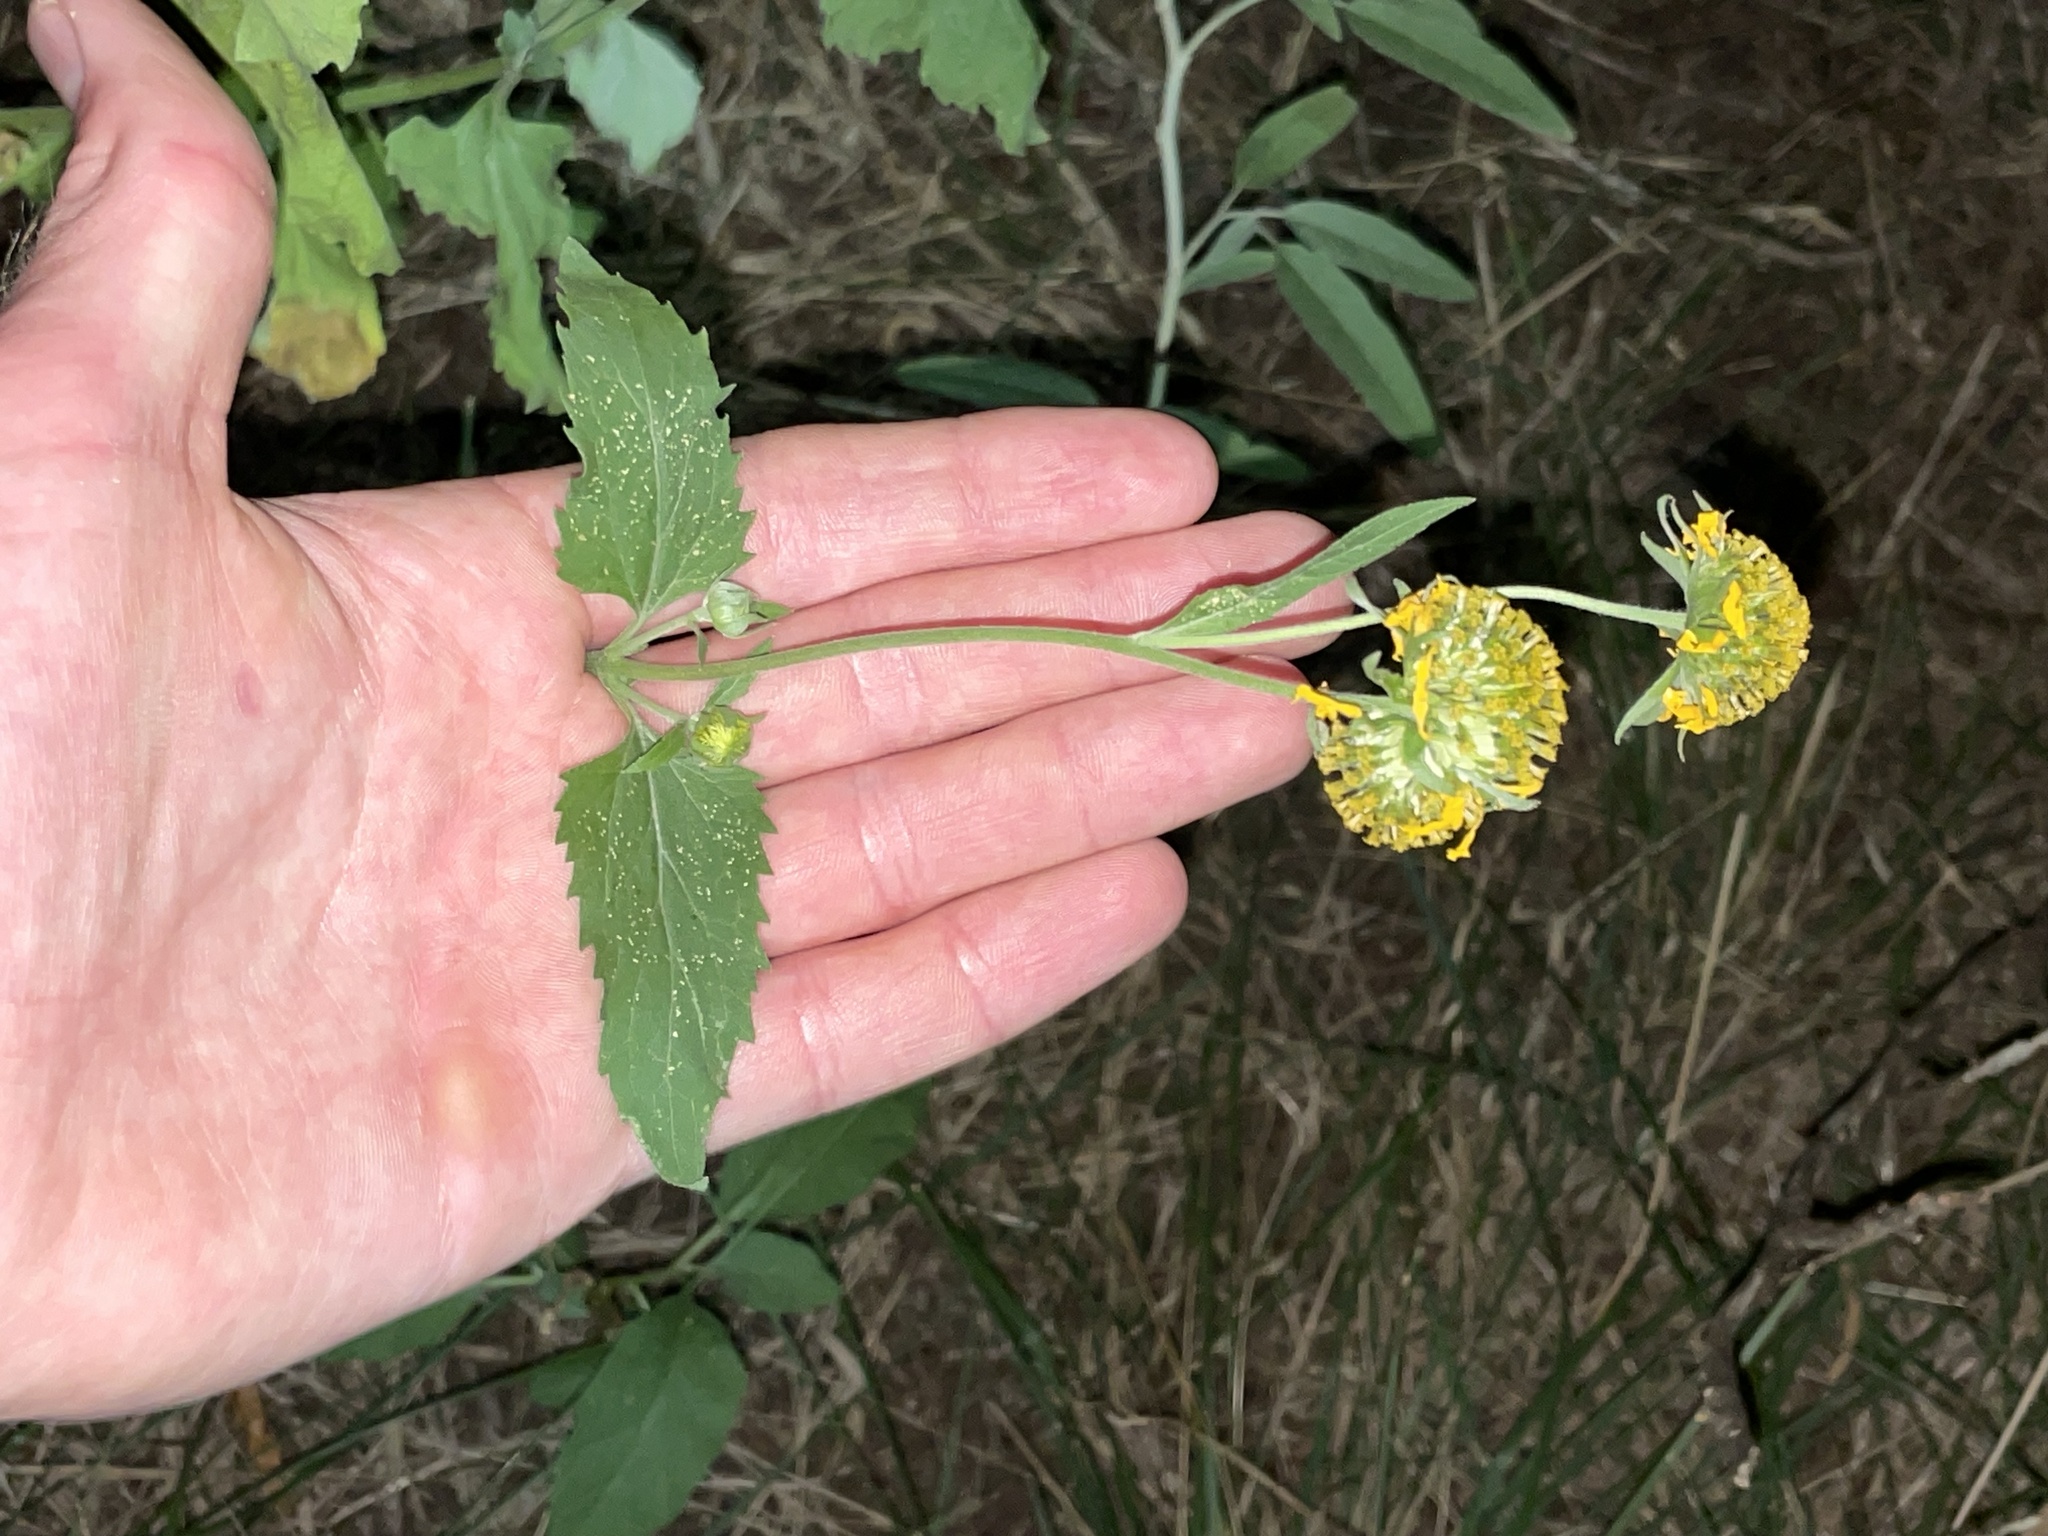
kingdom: Plantae
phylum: Tracheophyta
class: Magnoliopsida
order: Asterales
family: Asteraceae
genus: Verbesina
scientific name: Verbesina encelioides
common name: Golden crownbeard
